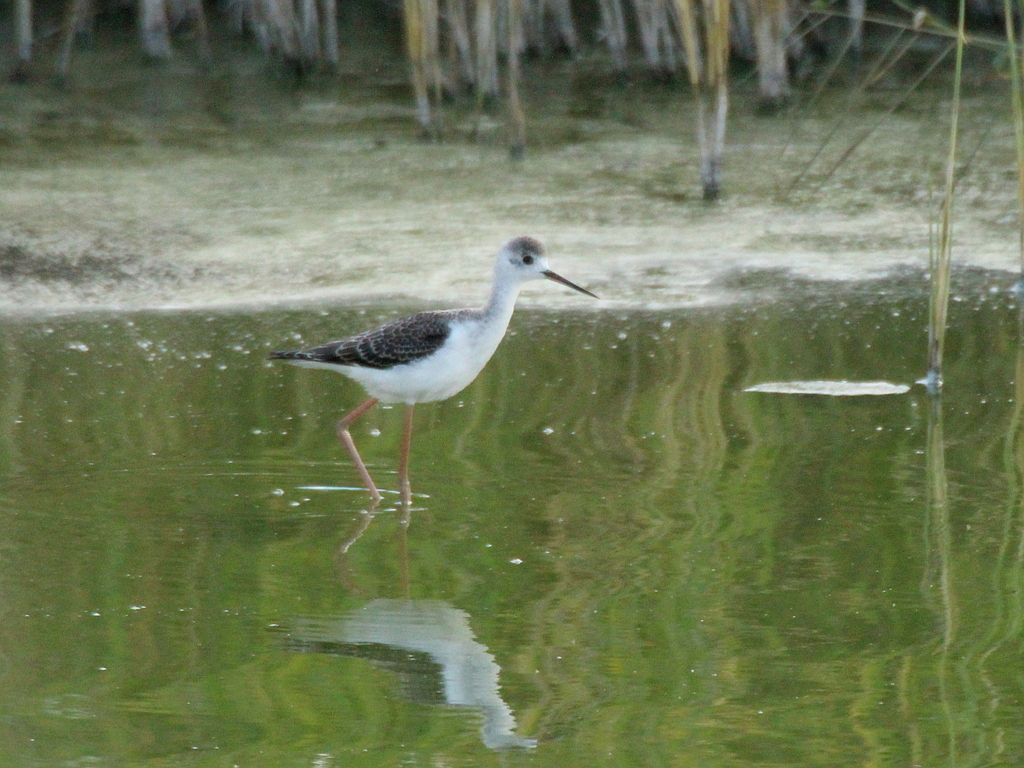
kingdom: Animalia
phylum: Chordata
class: Aves
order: Charadriiformes
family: Recurvirostridae
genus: Himantopus
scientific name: Himantopus himantopus
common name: Black-winged stilt
